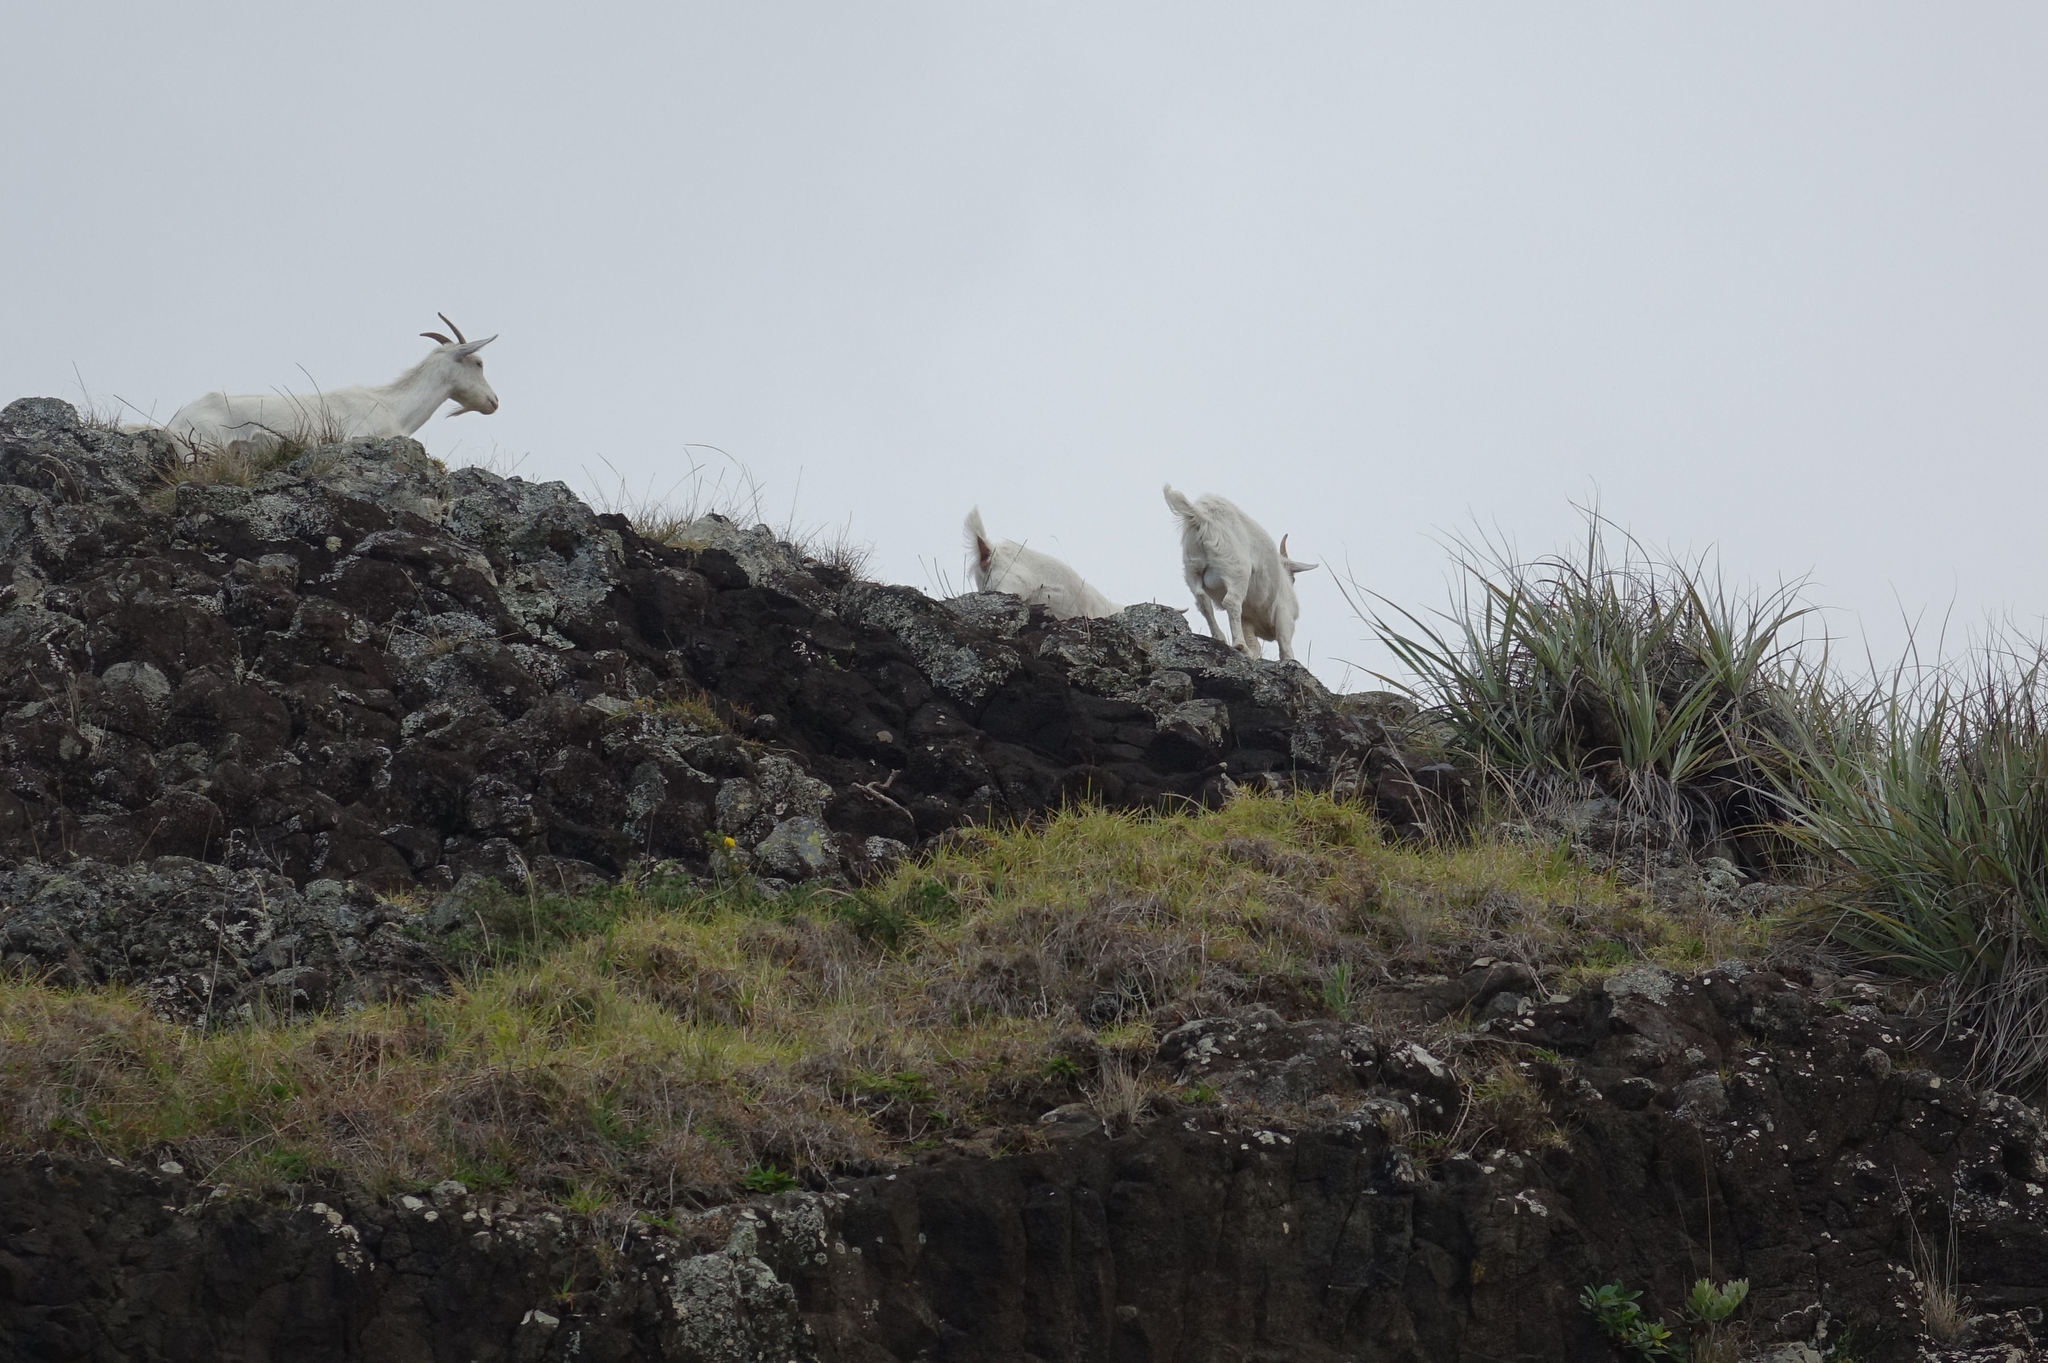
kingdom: Animalia
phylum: Chordata
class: Mammalia
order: Artiodactyla
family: Bovidae
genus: Capra
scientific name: Capra hircus
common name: Domestic goat
